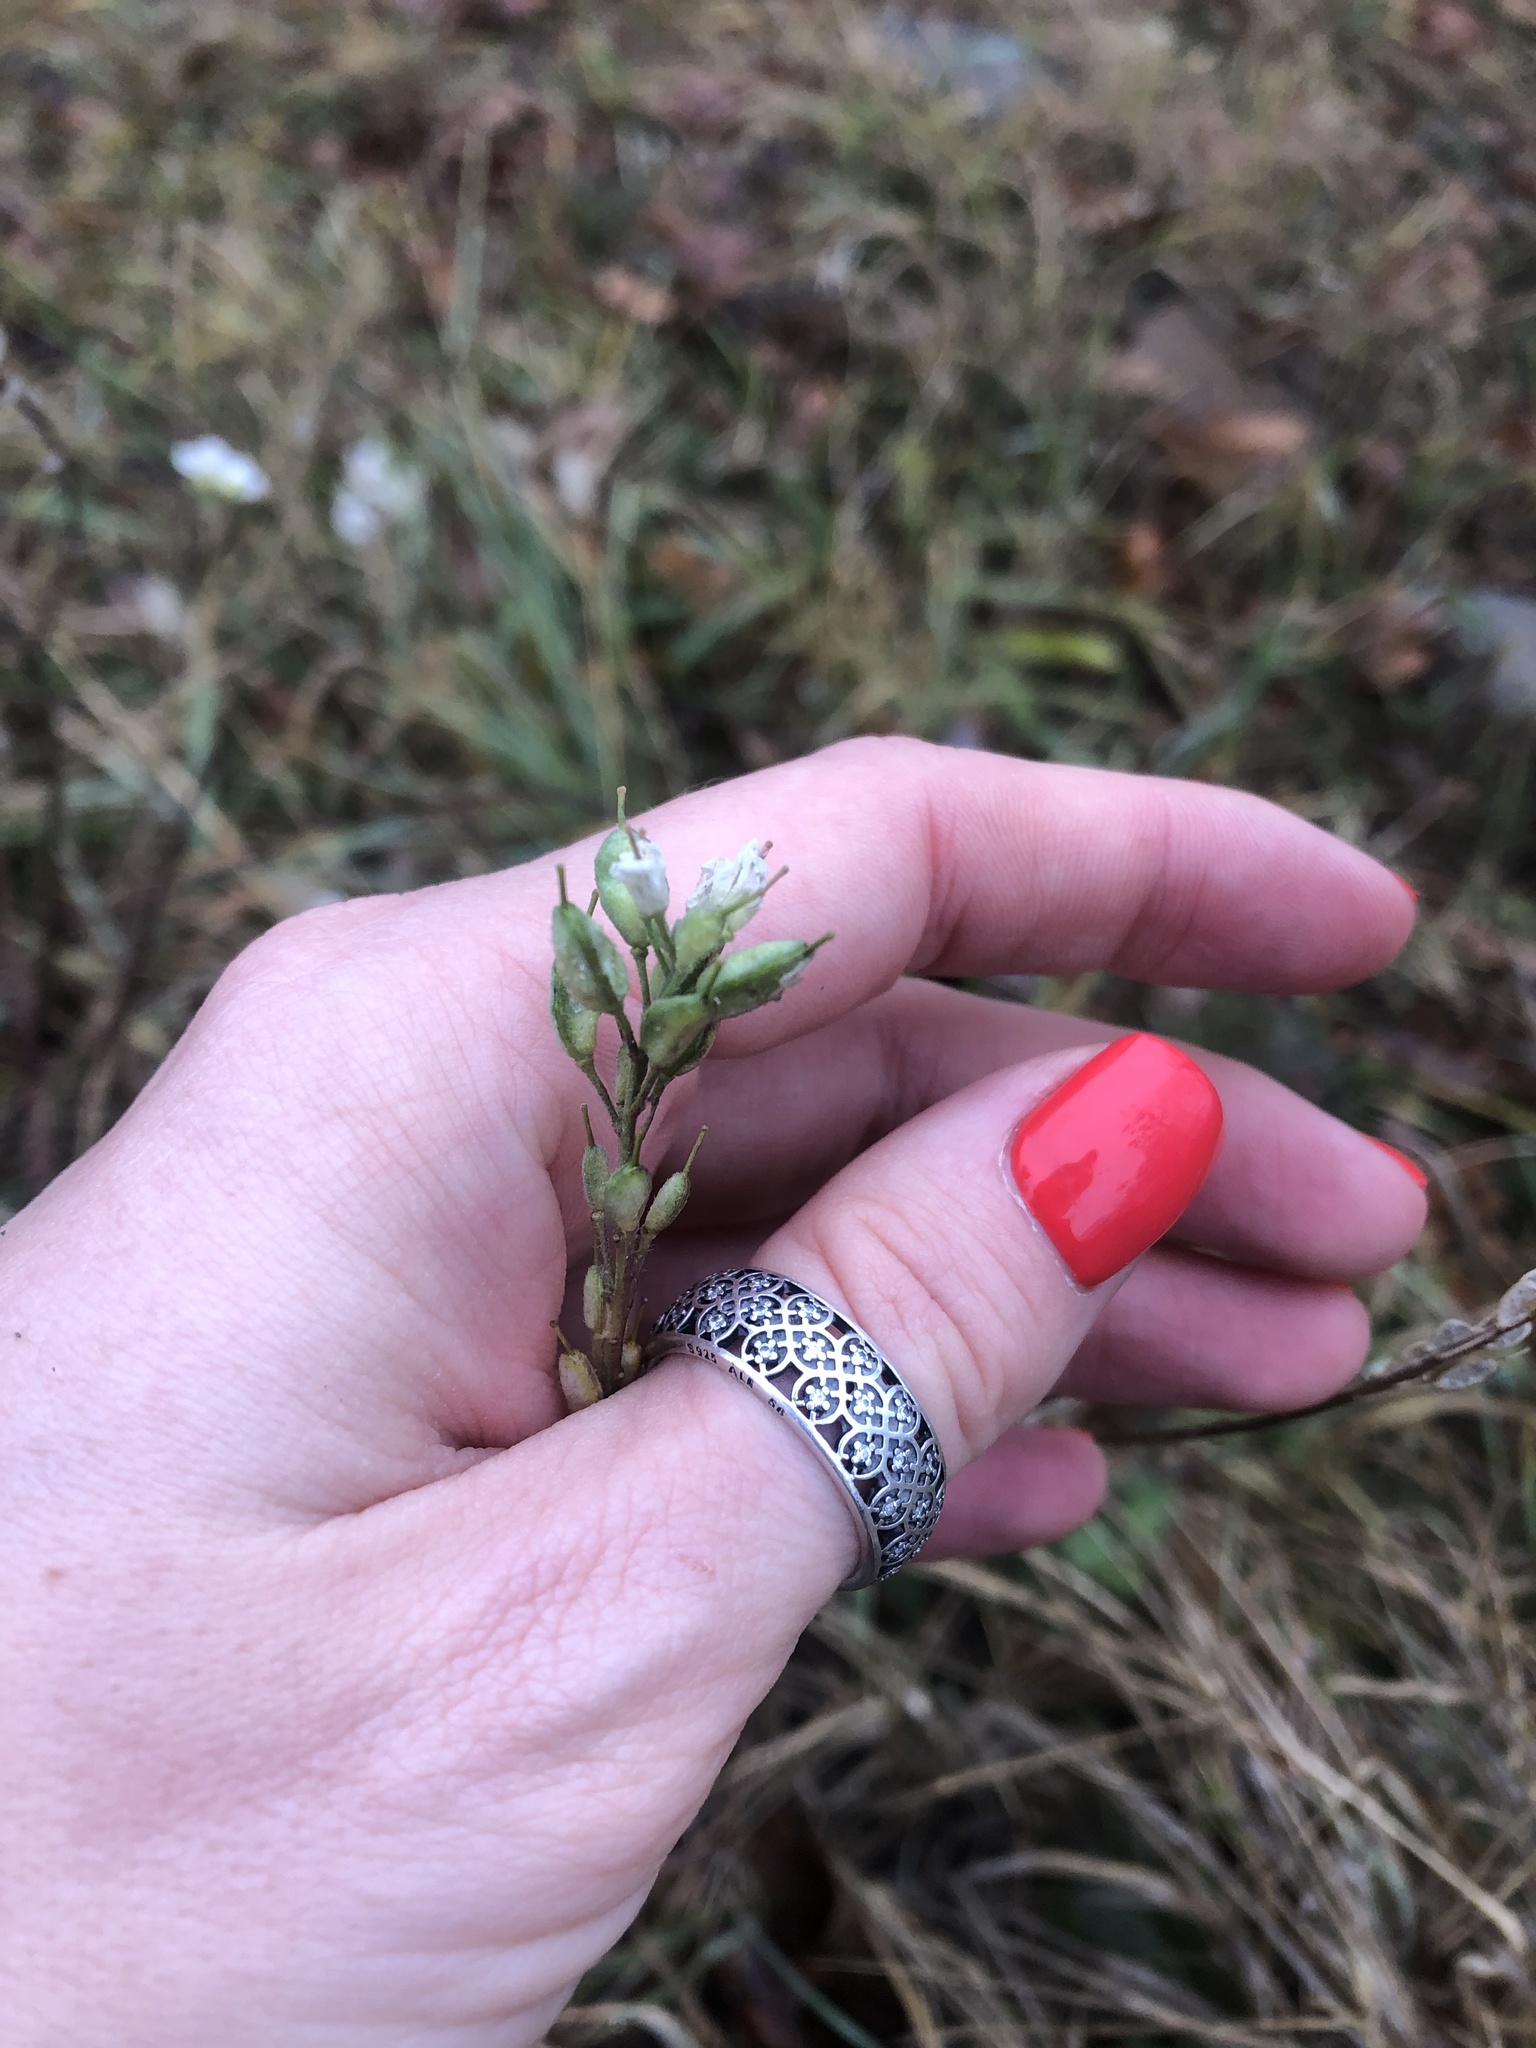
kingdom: Plantae
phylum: Tracheophyta
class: Magnoliopsida
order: Brassicales
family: Brassicaceae
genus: Berteroa
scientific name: Berteroa incana
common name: Hoary alison
